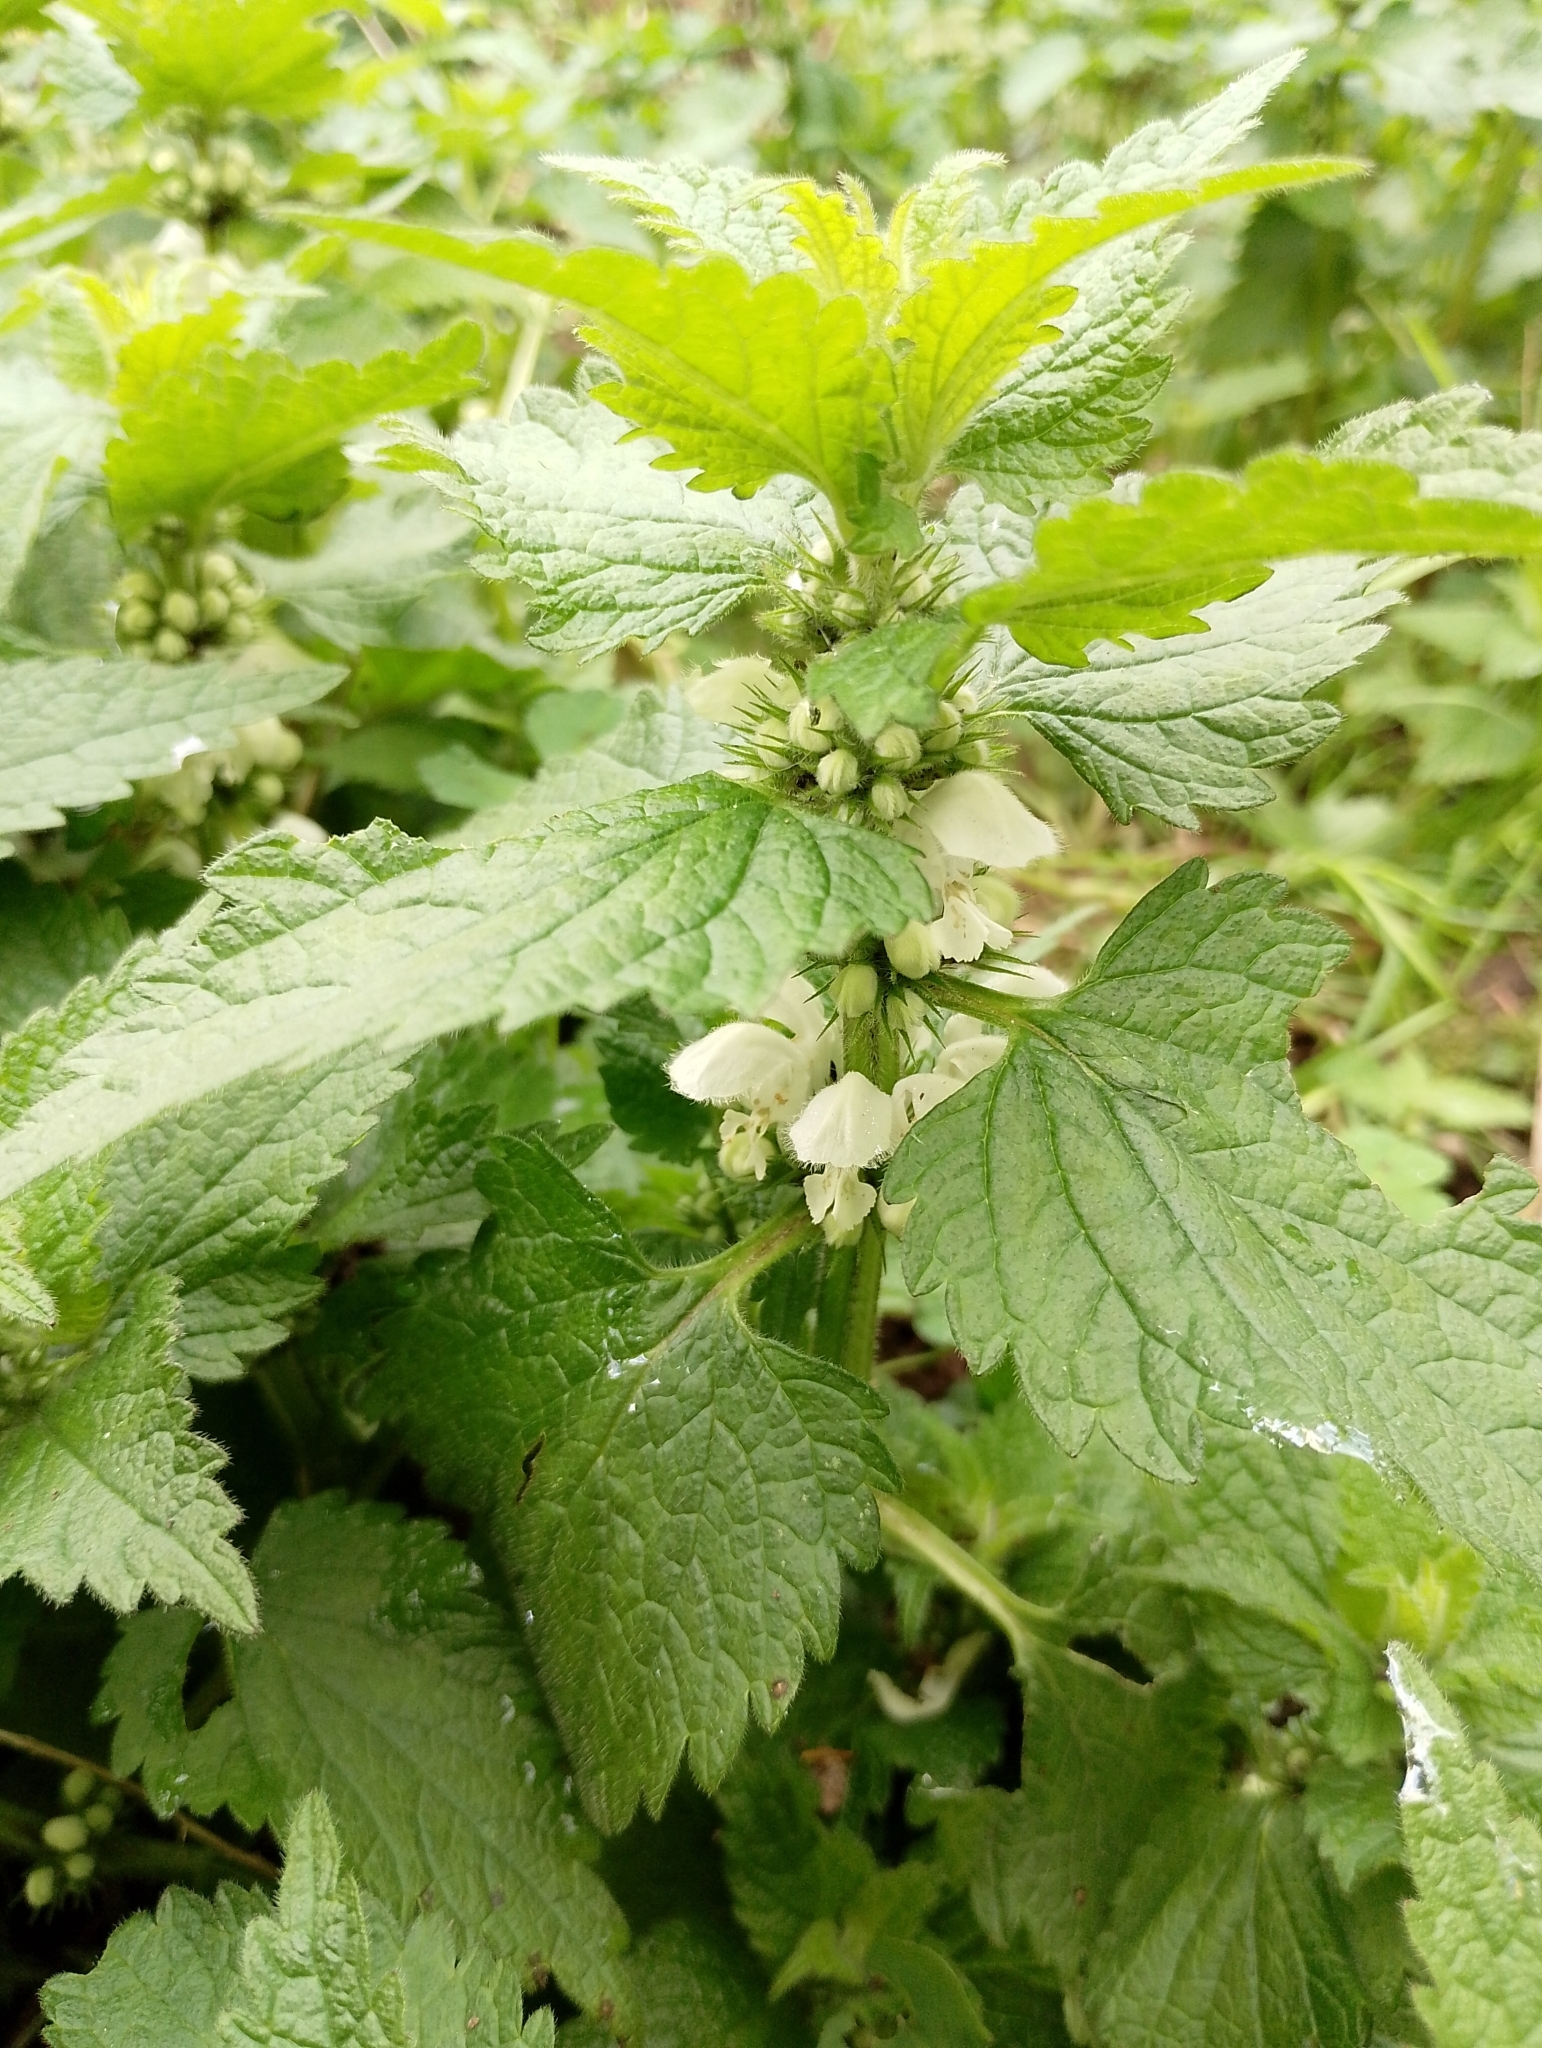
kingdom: Plantae
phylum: Tracheophyta
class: Magnoliopsida
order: Lamiales
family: Lamiaceae
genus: Lamium
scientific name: Lamium album
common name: White dead-nettle
